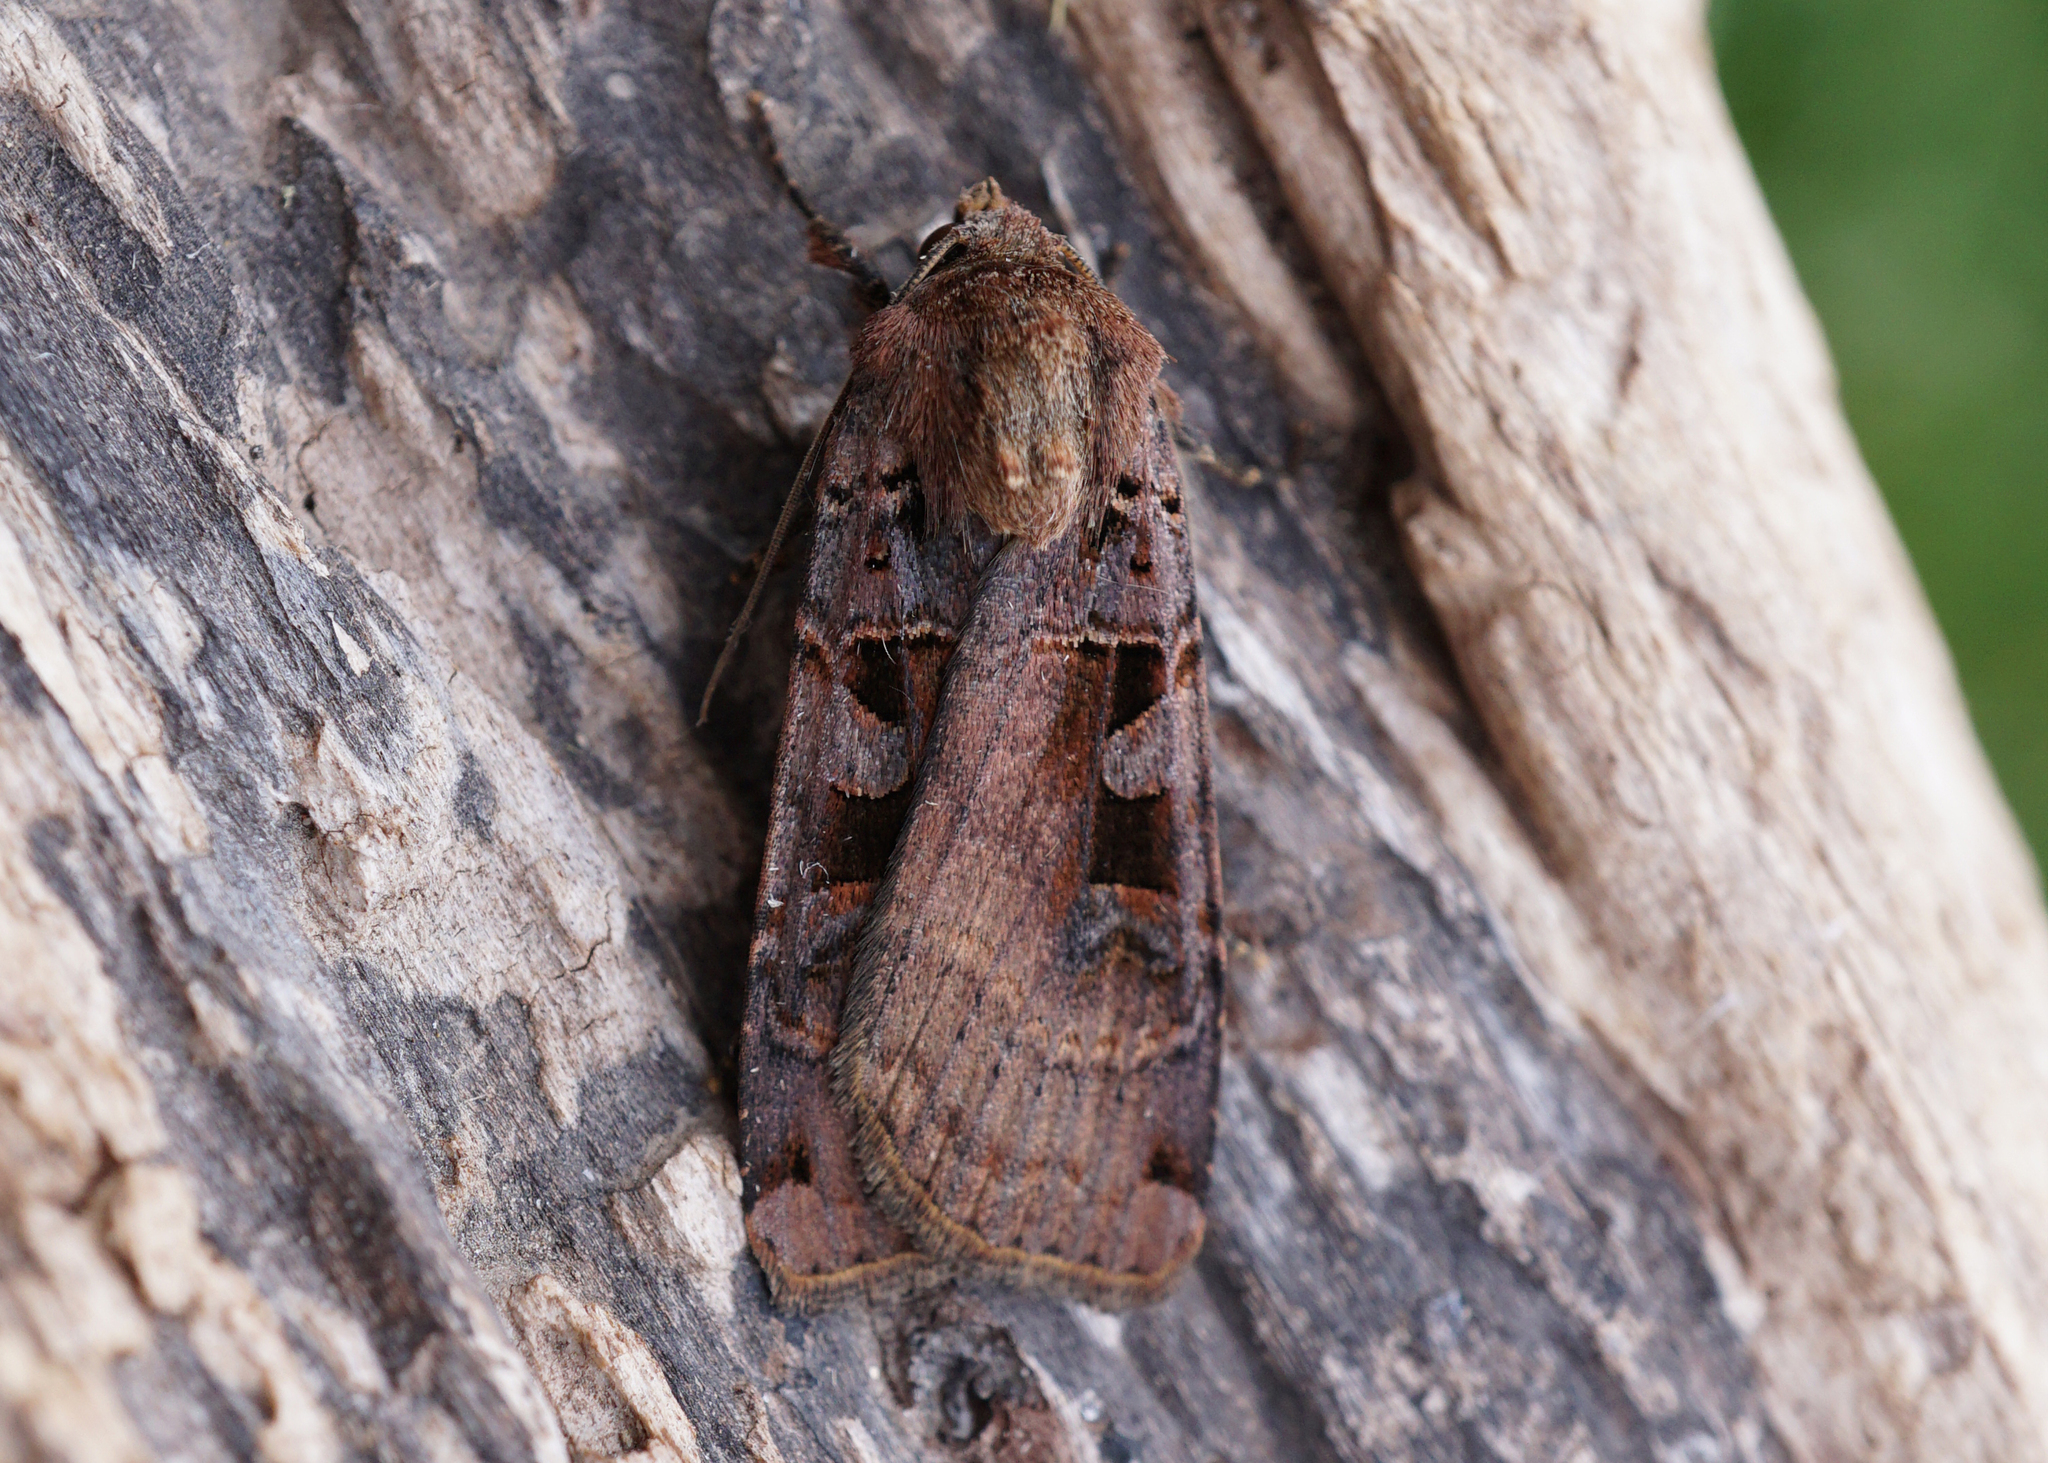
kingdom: Animalia
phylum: Arthropoda
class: Insecta
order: Lepidoptera
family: Noctuidae
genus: Xestia
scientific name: Xestia ditrapezium
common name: Triple-spotted clay
